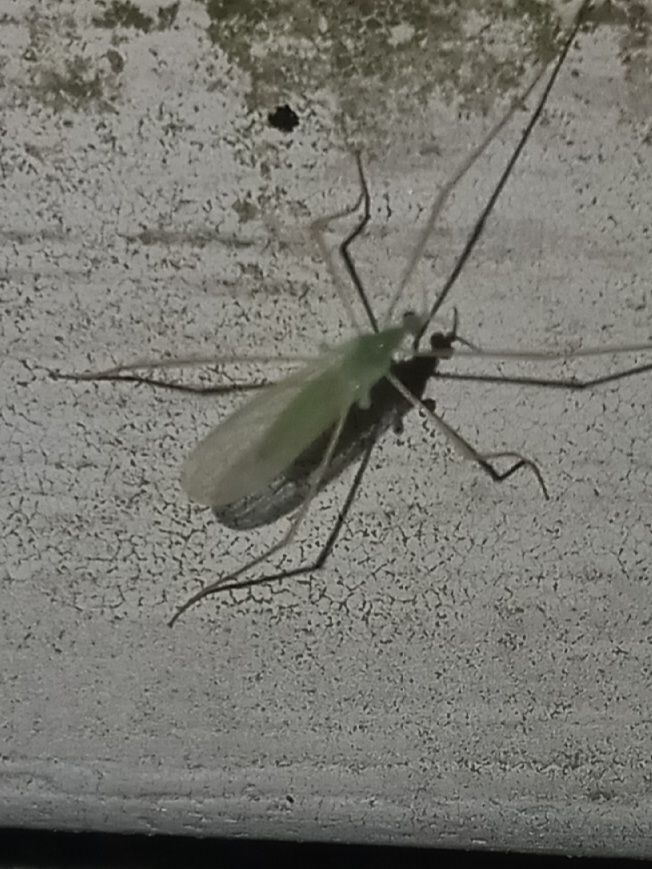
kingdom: Animalia
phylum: Arthropoda
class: Insecta
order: Diptera
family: Limoniidae
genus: Erioptera
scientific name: Erioptera
